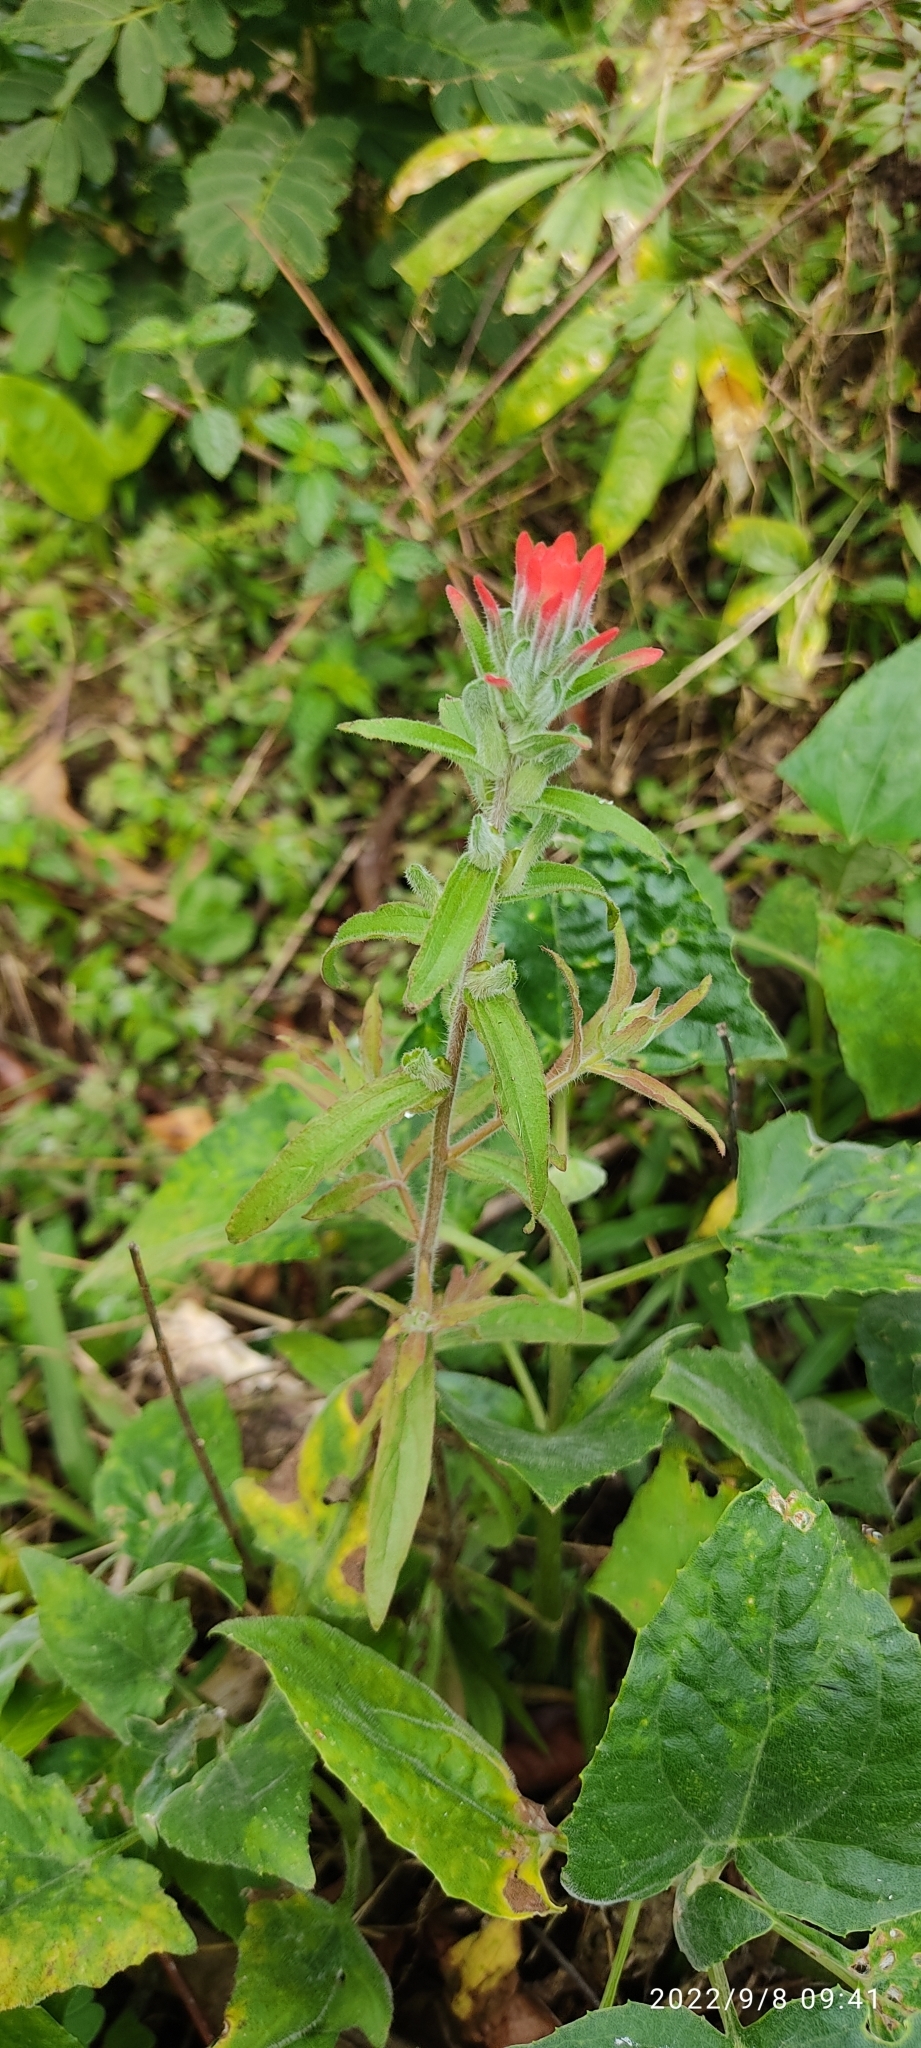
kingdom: Plantae
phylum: Tracheophyta
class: Magnoliopsida
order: Lamiales
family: Orobanchaceae
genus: Castilleja
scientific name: Castilleja arvensis
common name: Indian paintbrush
